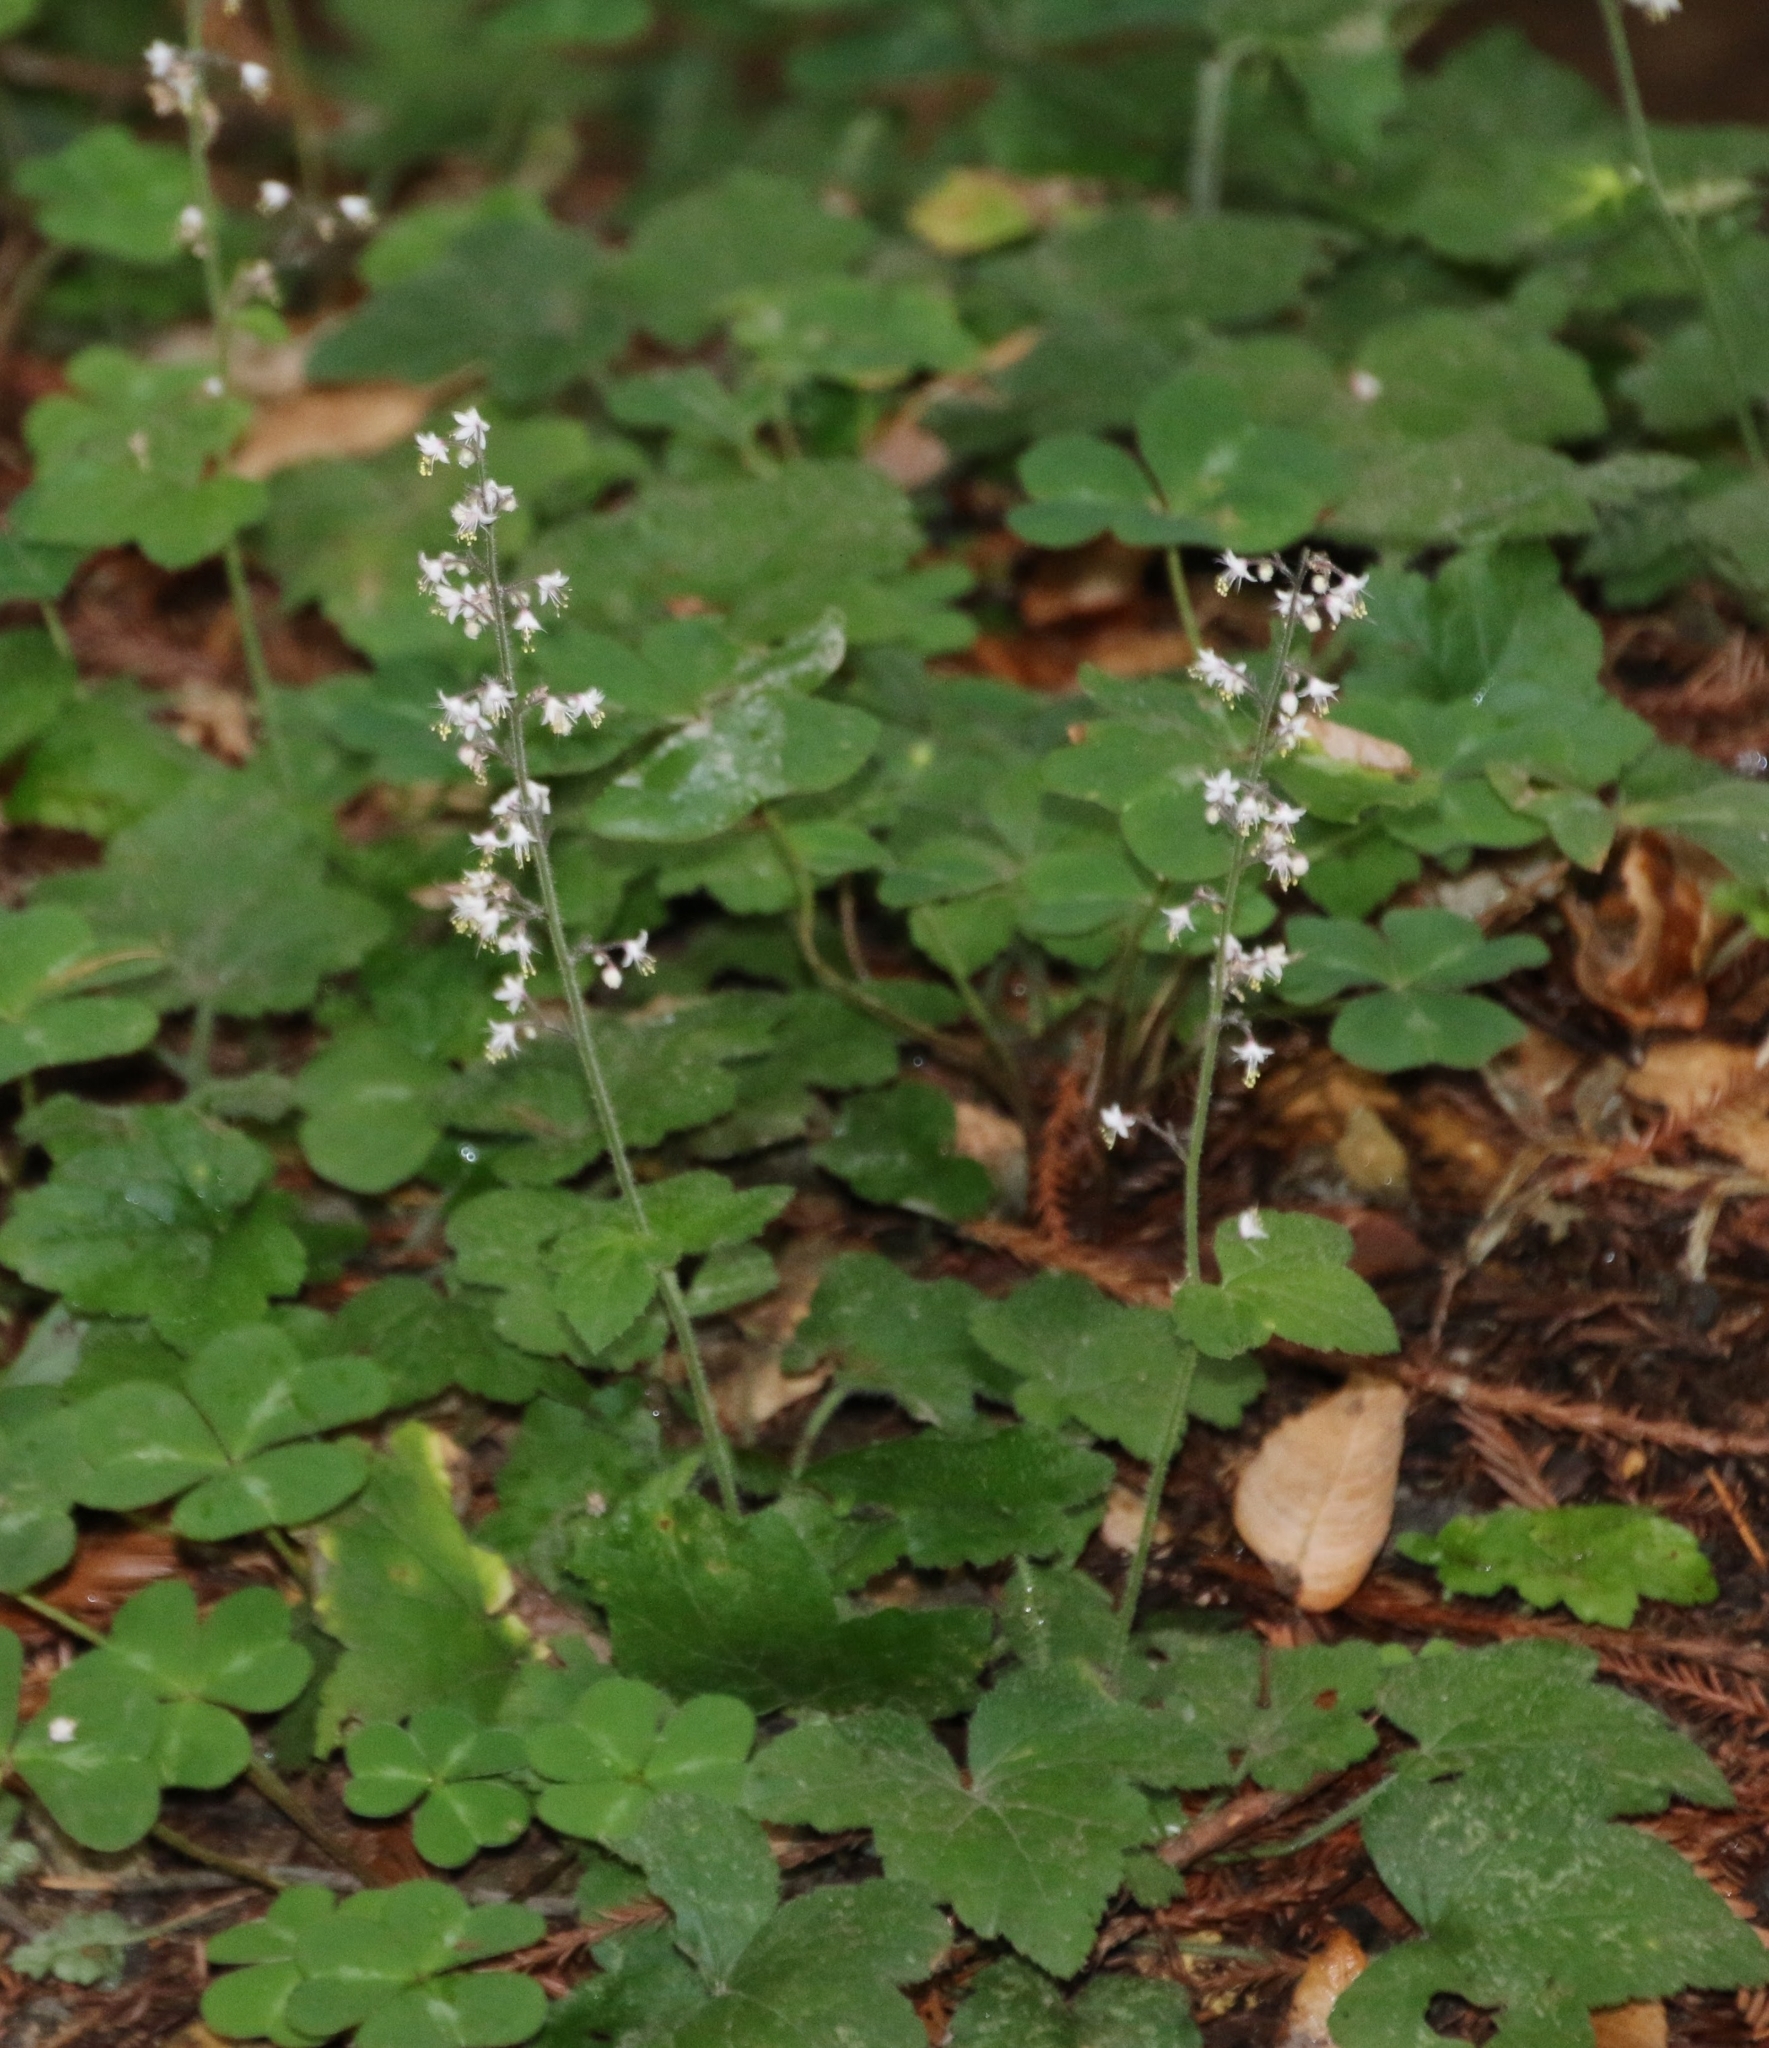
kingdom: Plantae
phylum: Tracheophyta
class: Magnoliopsida
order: Saxifragales
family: Saxifragaceae
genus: Tiarella
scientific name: Tiarella trifoliata
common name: Sugar-scoop
